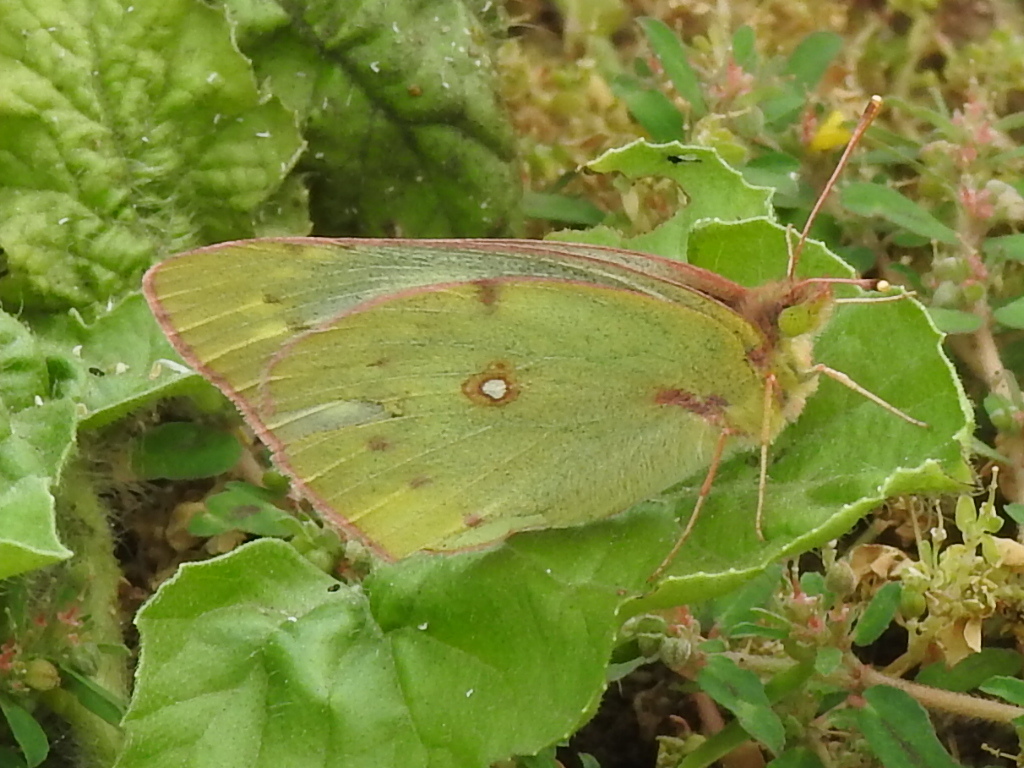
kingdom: Animalia
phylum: Arthropoda
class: Insecta
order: Lepidoptera
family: Pieridae
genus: Colias
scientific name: Colias eurytheme
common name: Alfalfa butterfly
